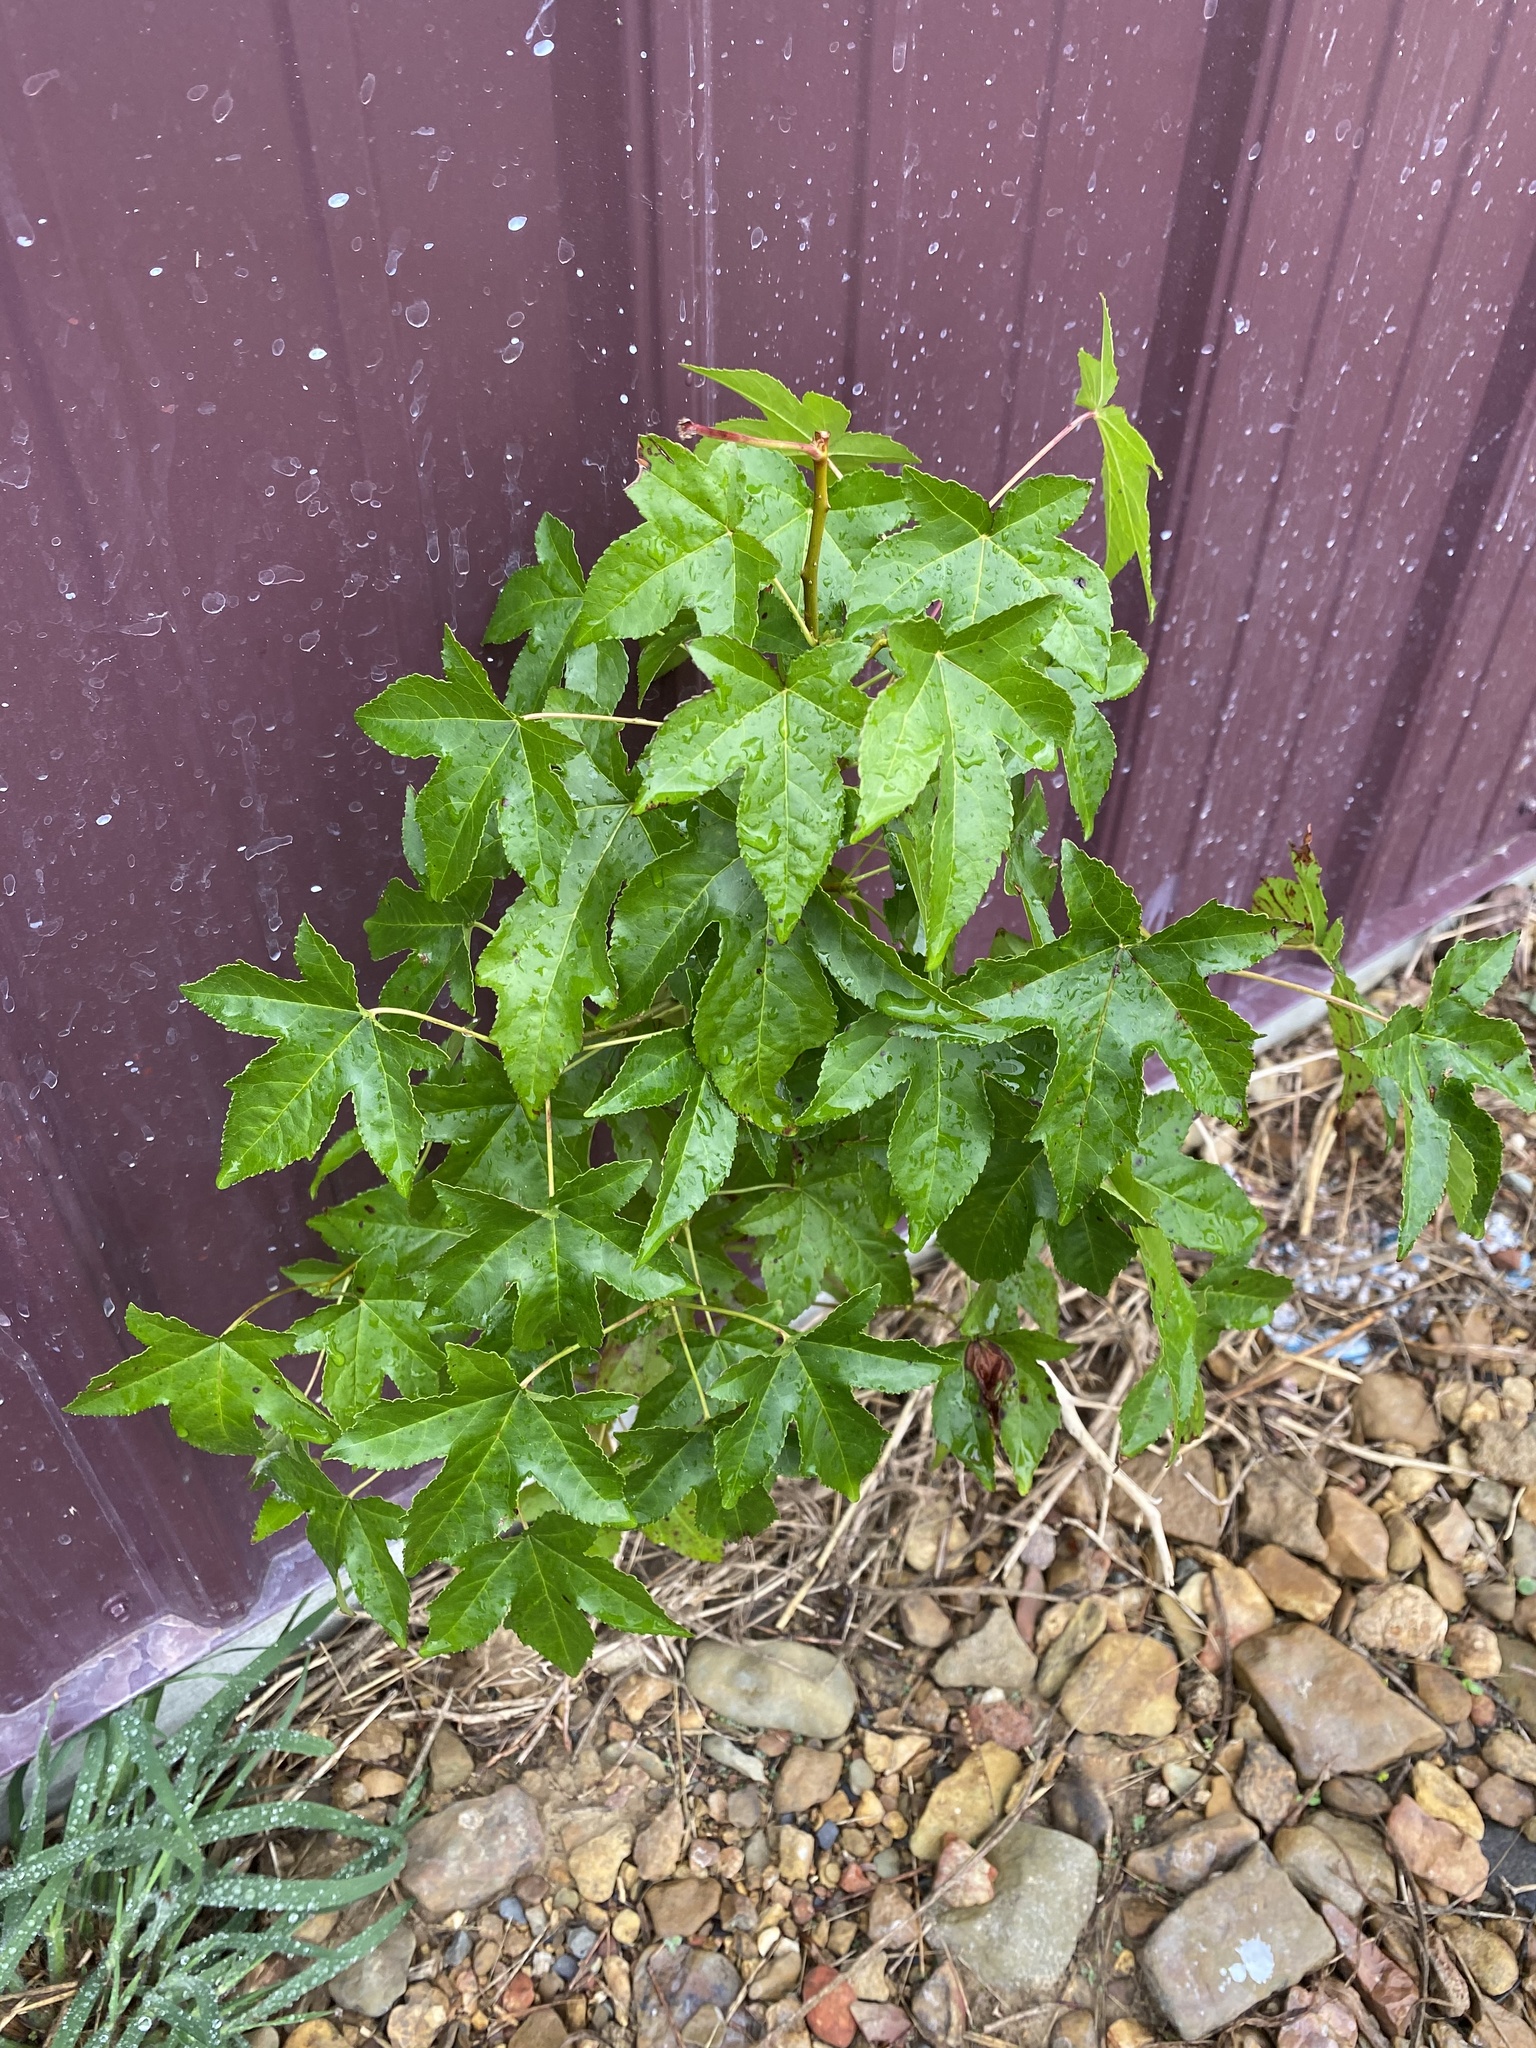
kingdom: Plantae
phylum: Tracheophyta
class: Magnoliopsida
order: Saxifragales
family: Altingiaceae
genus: Liquidambar
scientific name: Liquidambar styraciflua
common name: Sweet gum
